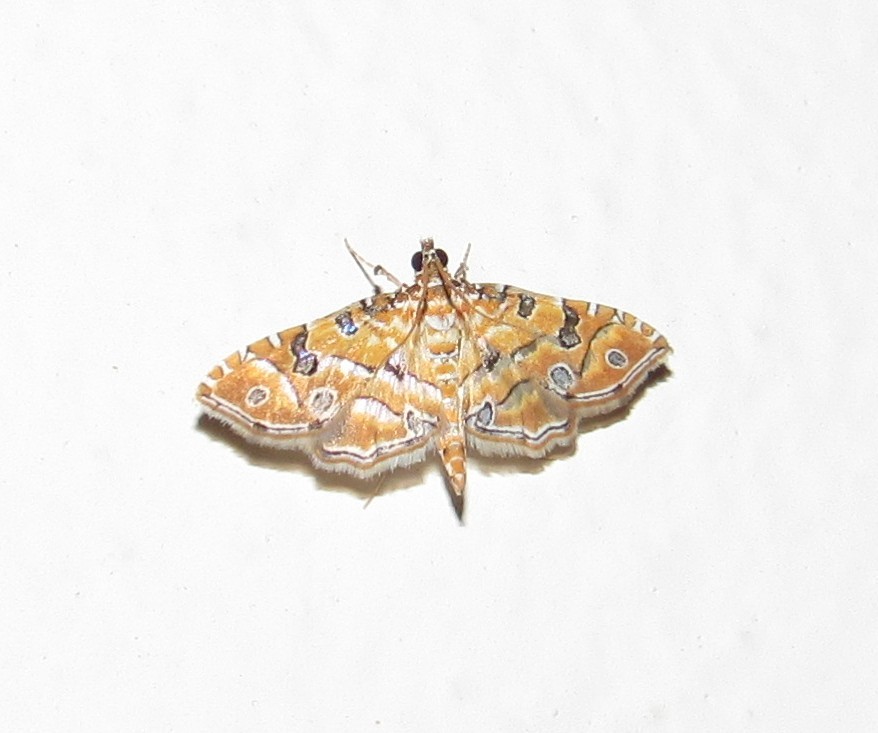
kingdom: Animalia
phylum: Arthropoda
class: Insecta
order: Lepidoptera
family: Crambidae
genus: Ommatospila
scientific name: Ommatospila narcaeusalis
